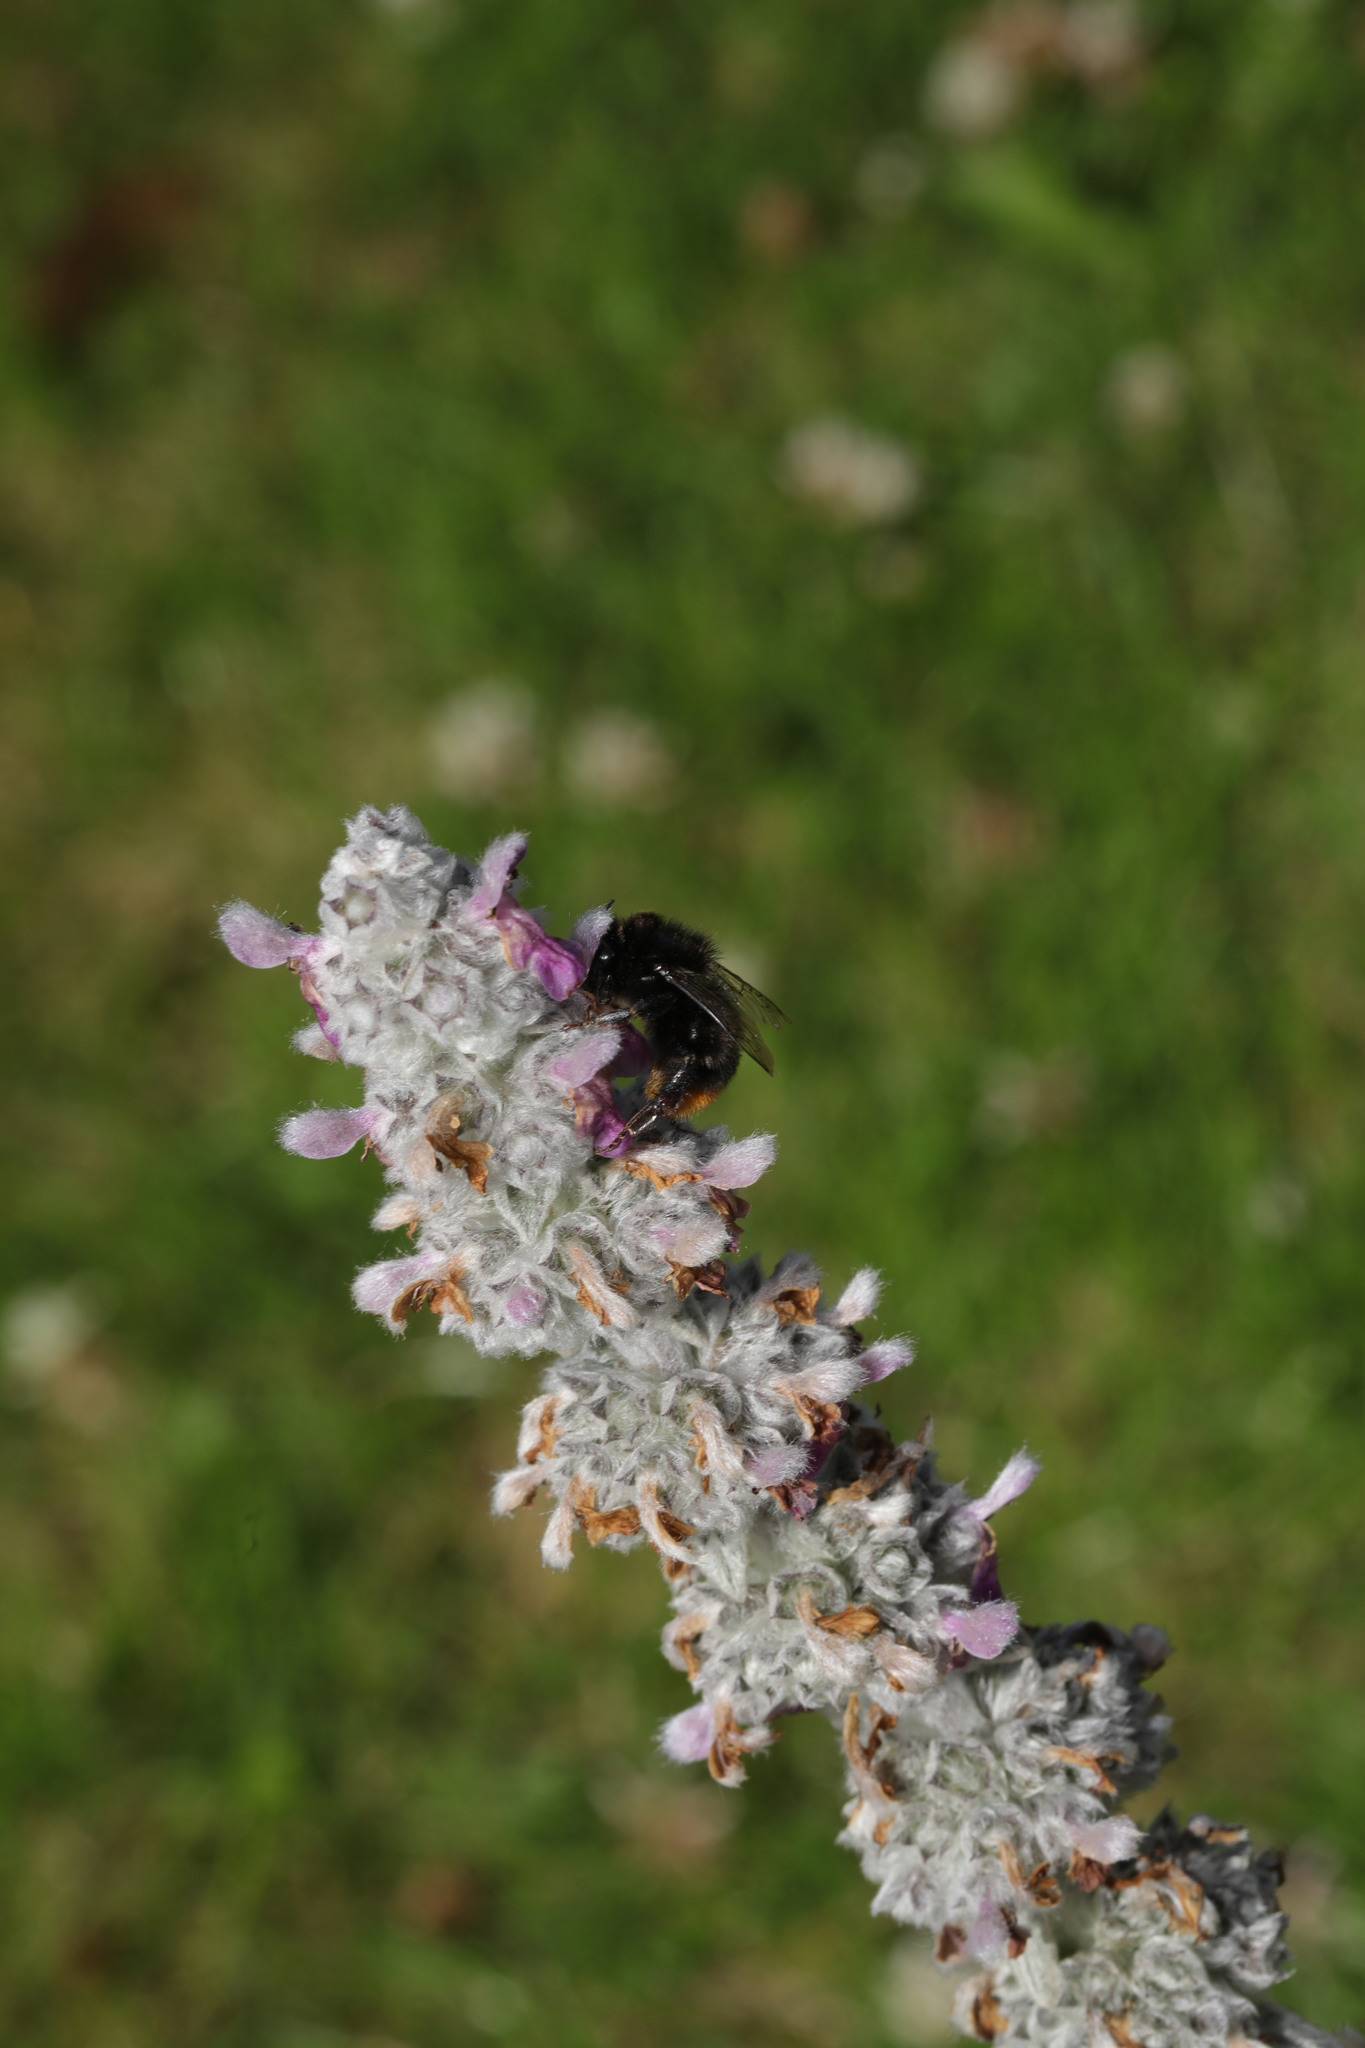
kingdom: Animalia
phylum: Arthropoda
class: Insecta
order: Hymenoptera
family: Apidae
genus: Bombus
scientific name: Bombus lapidarius
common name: Large red-tailed humble-bee
